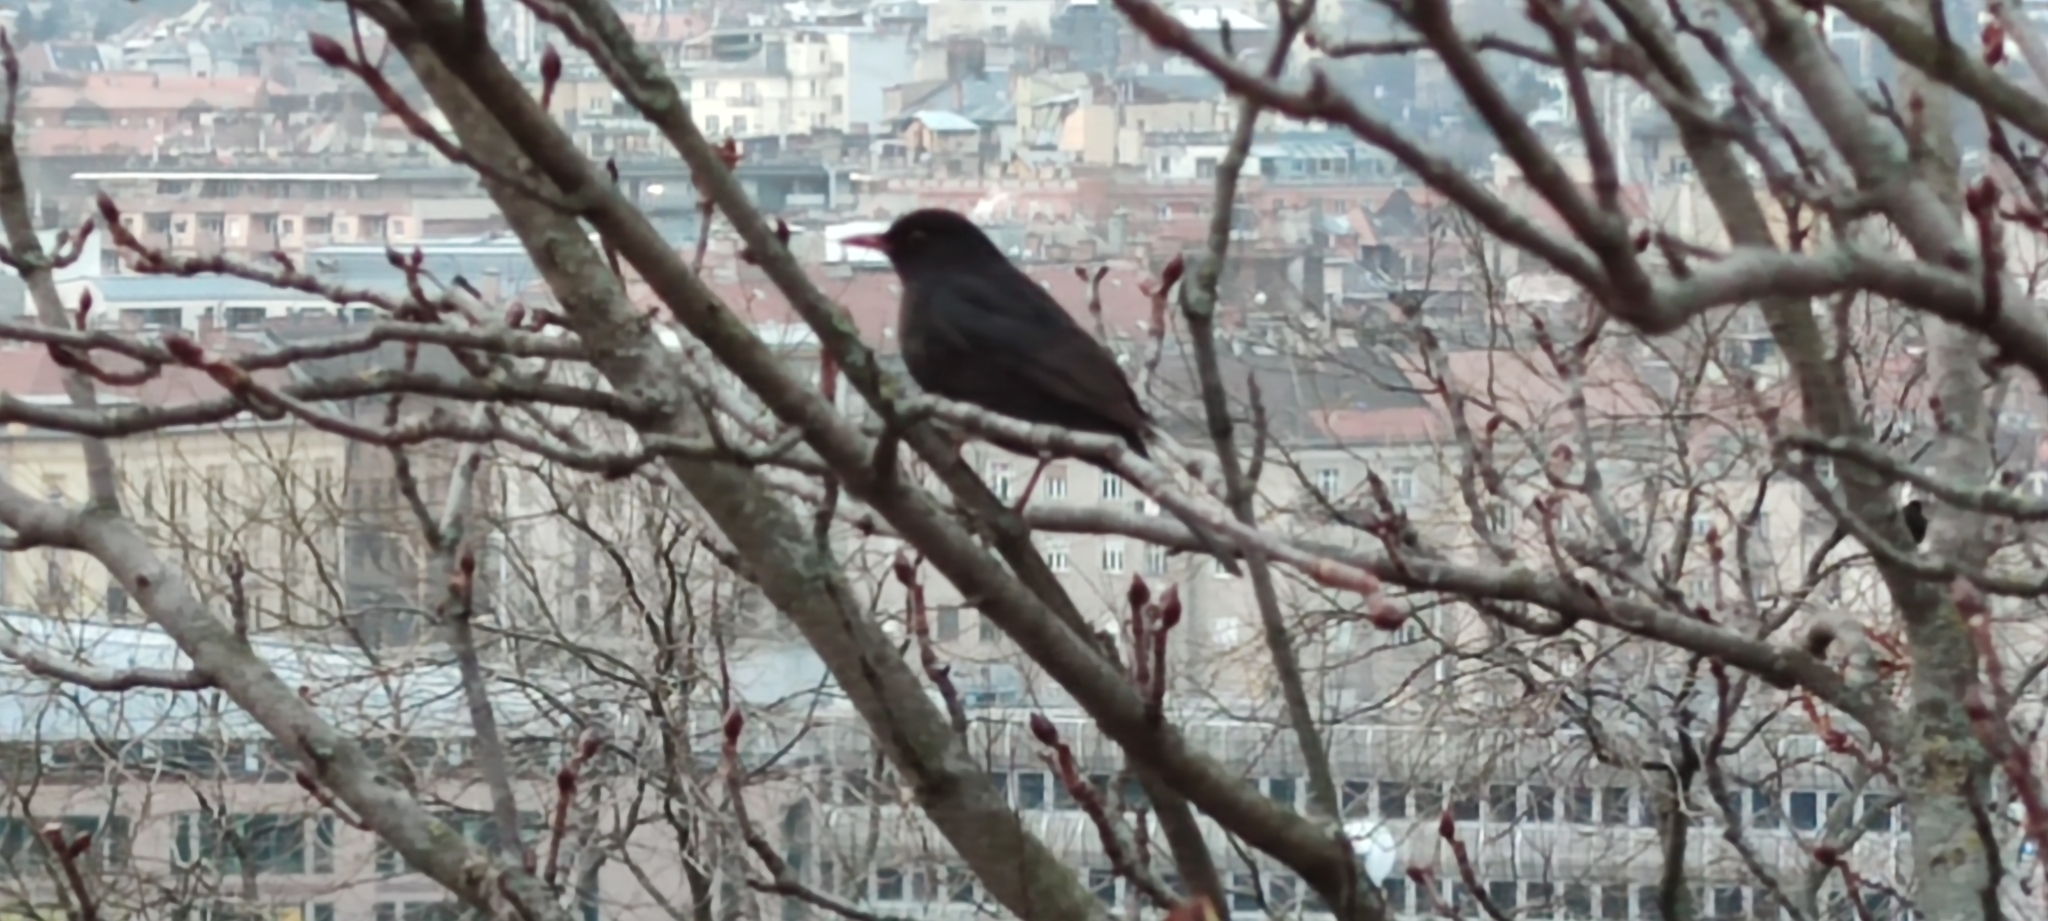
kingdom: Animalia
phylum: Chordata
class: Aves
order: Passeriformes
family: Turdidae
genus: Turdus
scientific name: Turdus merula
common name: Common blackbird
